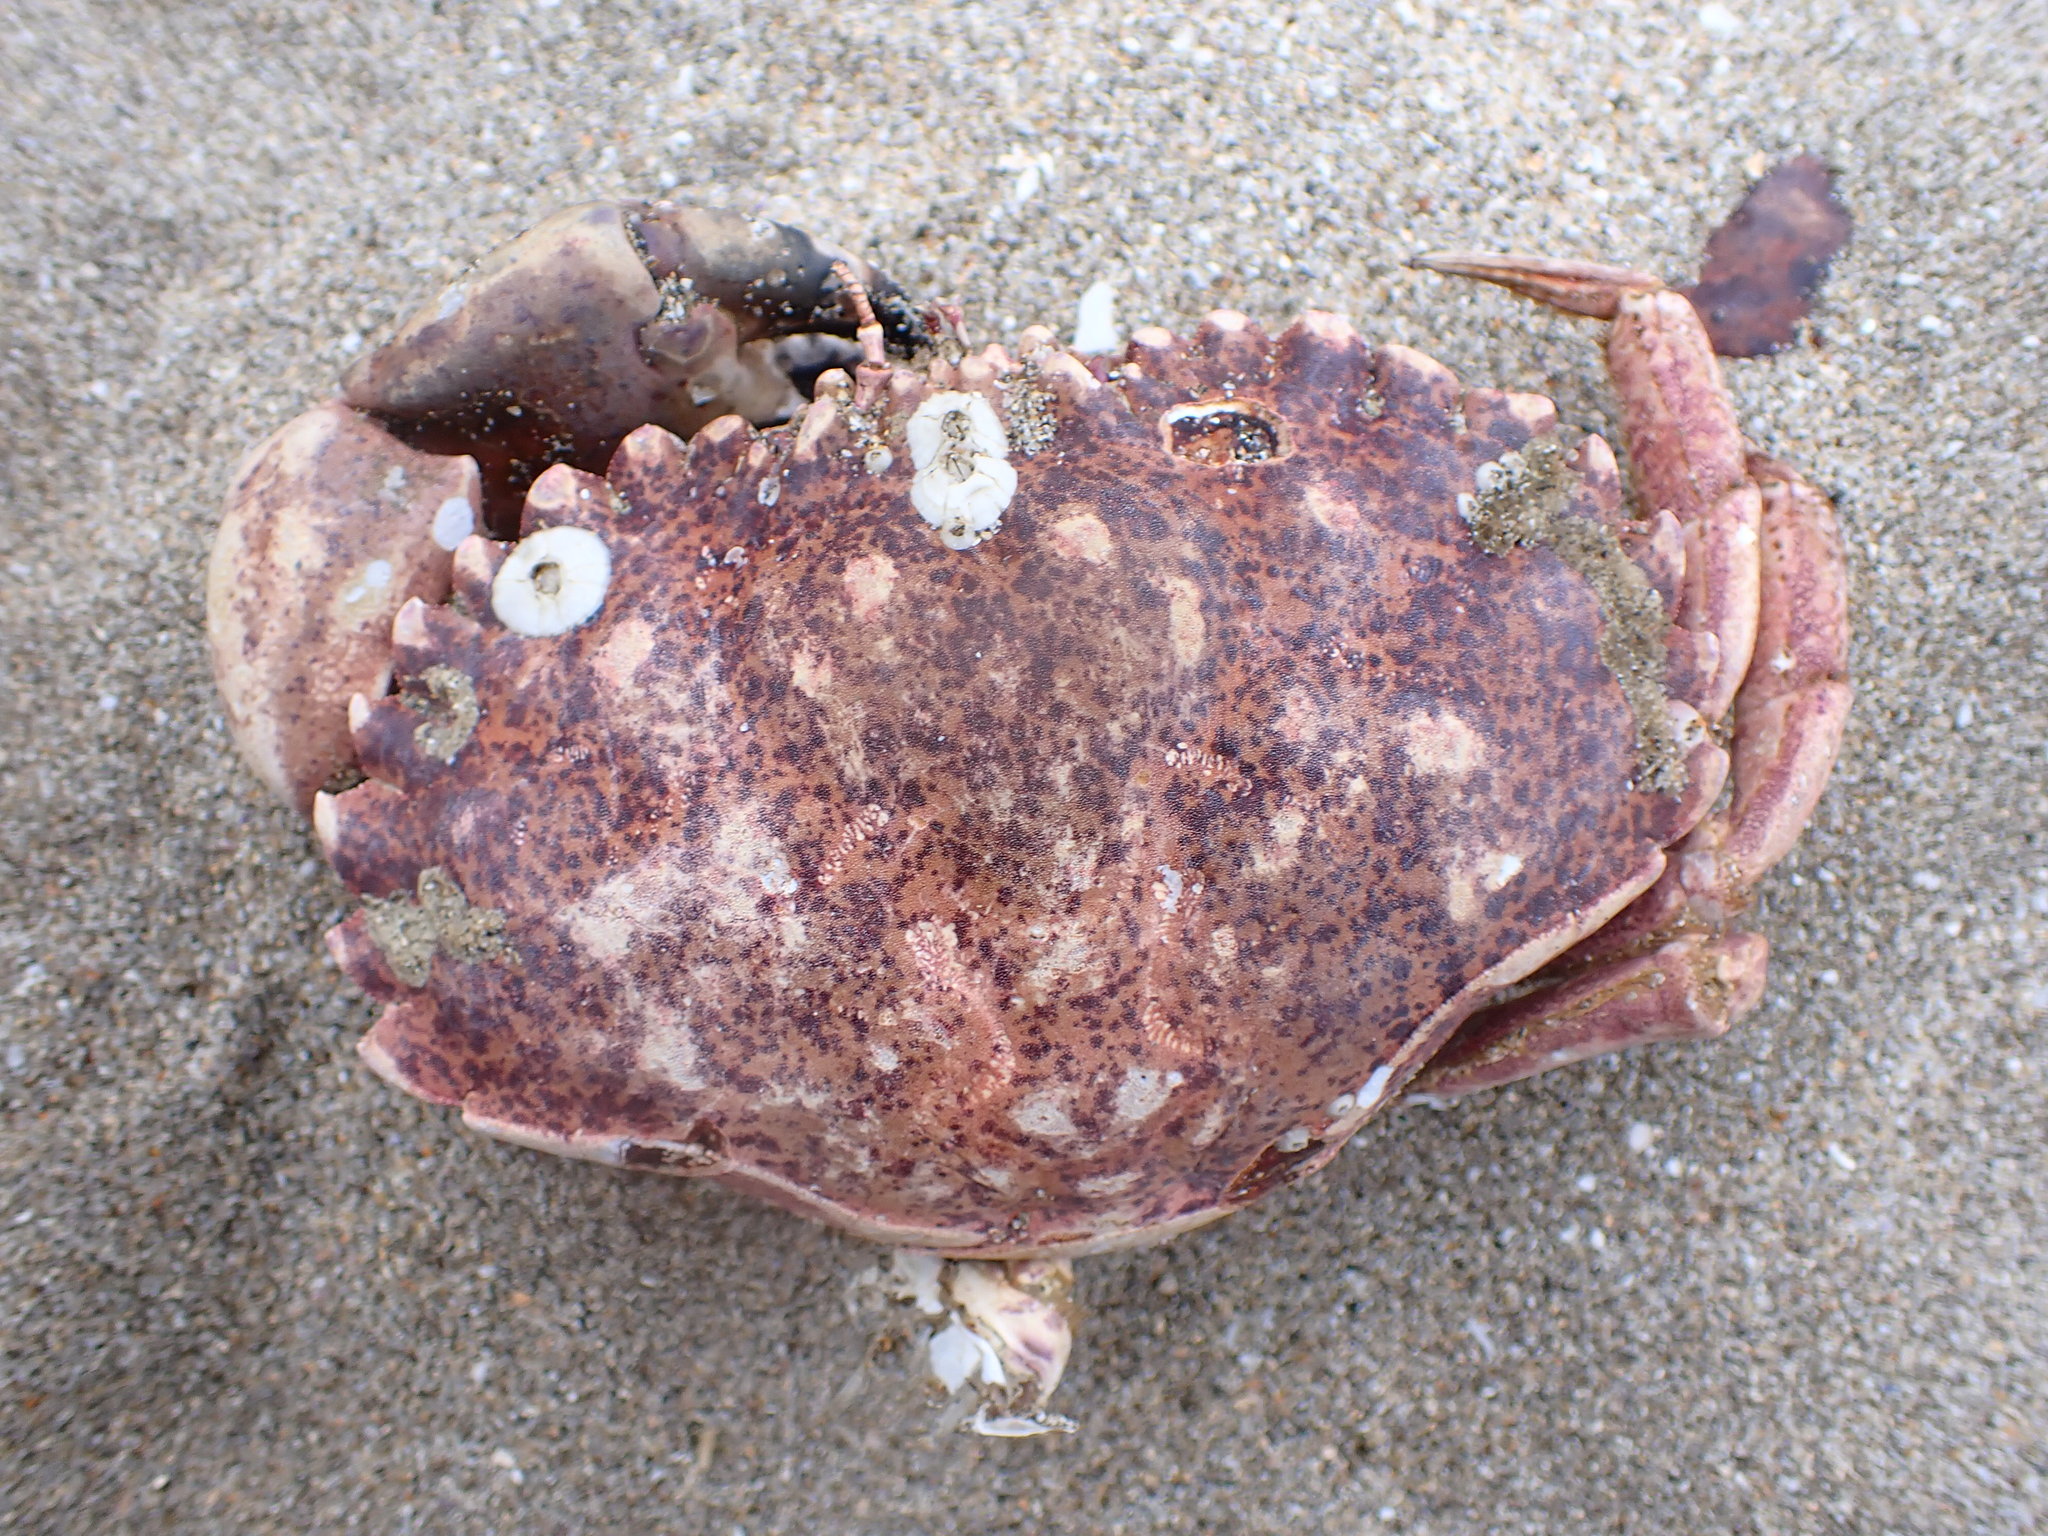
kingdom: Animalia
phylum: Arthropoda
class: Malacostraca
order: Decapoda
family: Cancridae
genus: Romaleon
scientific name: Romaleon antennarium
